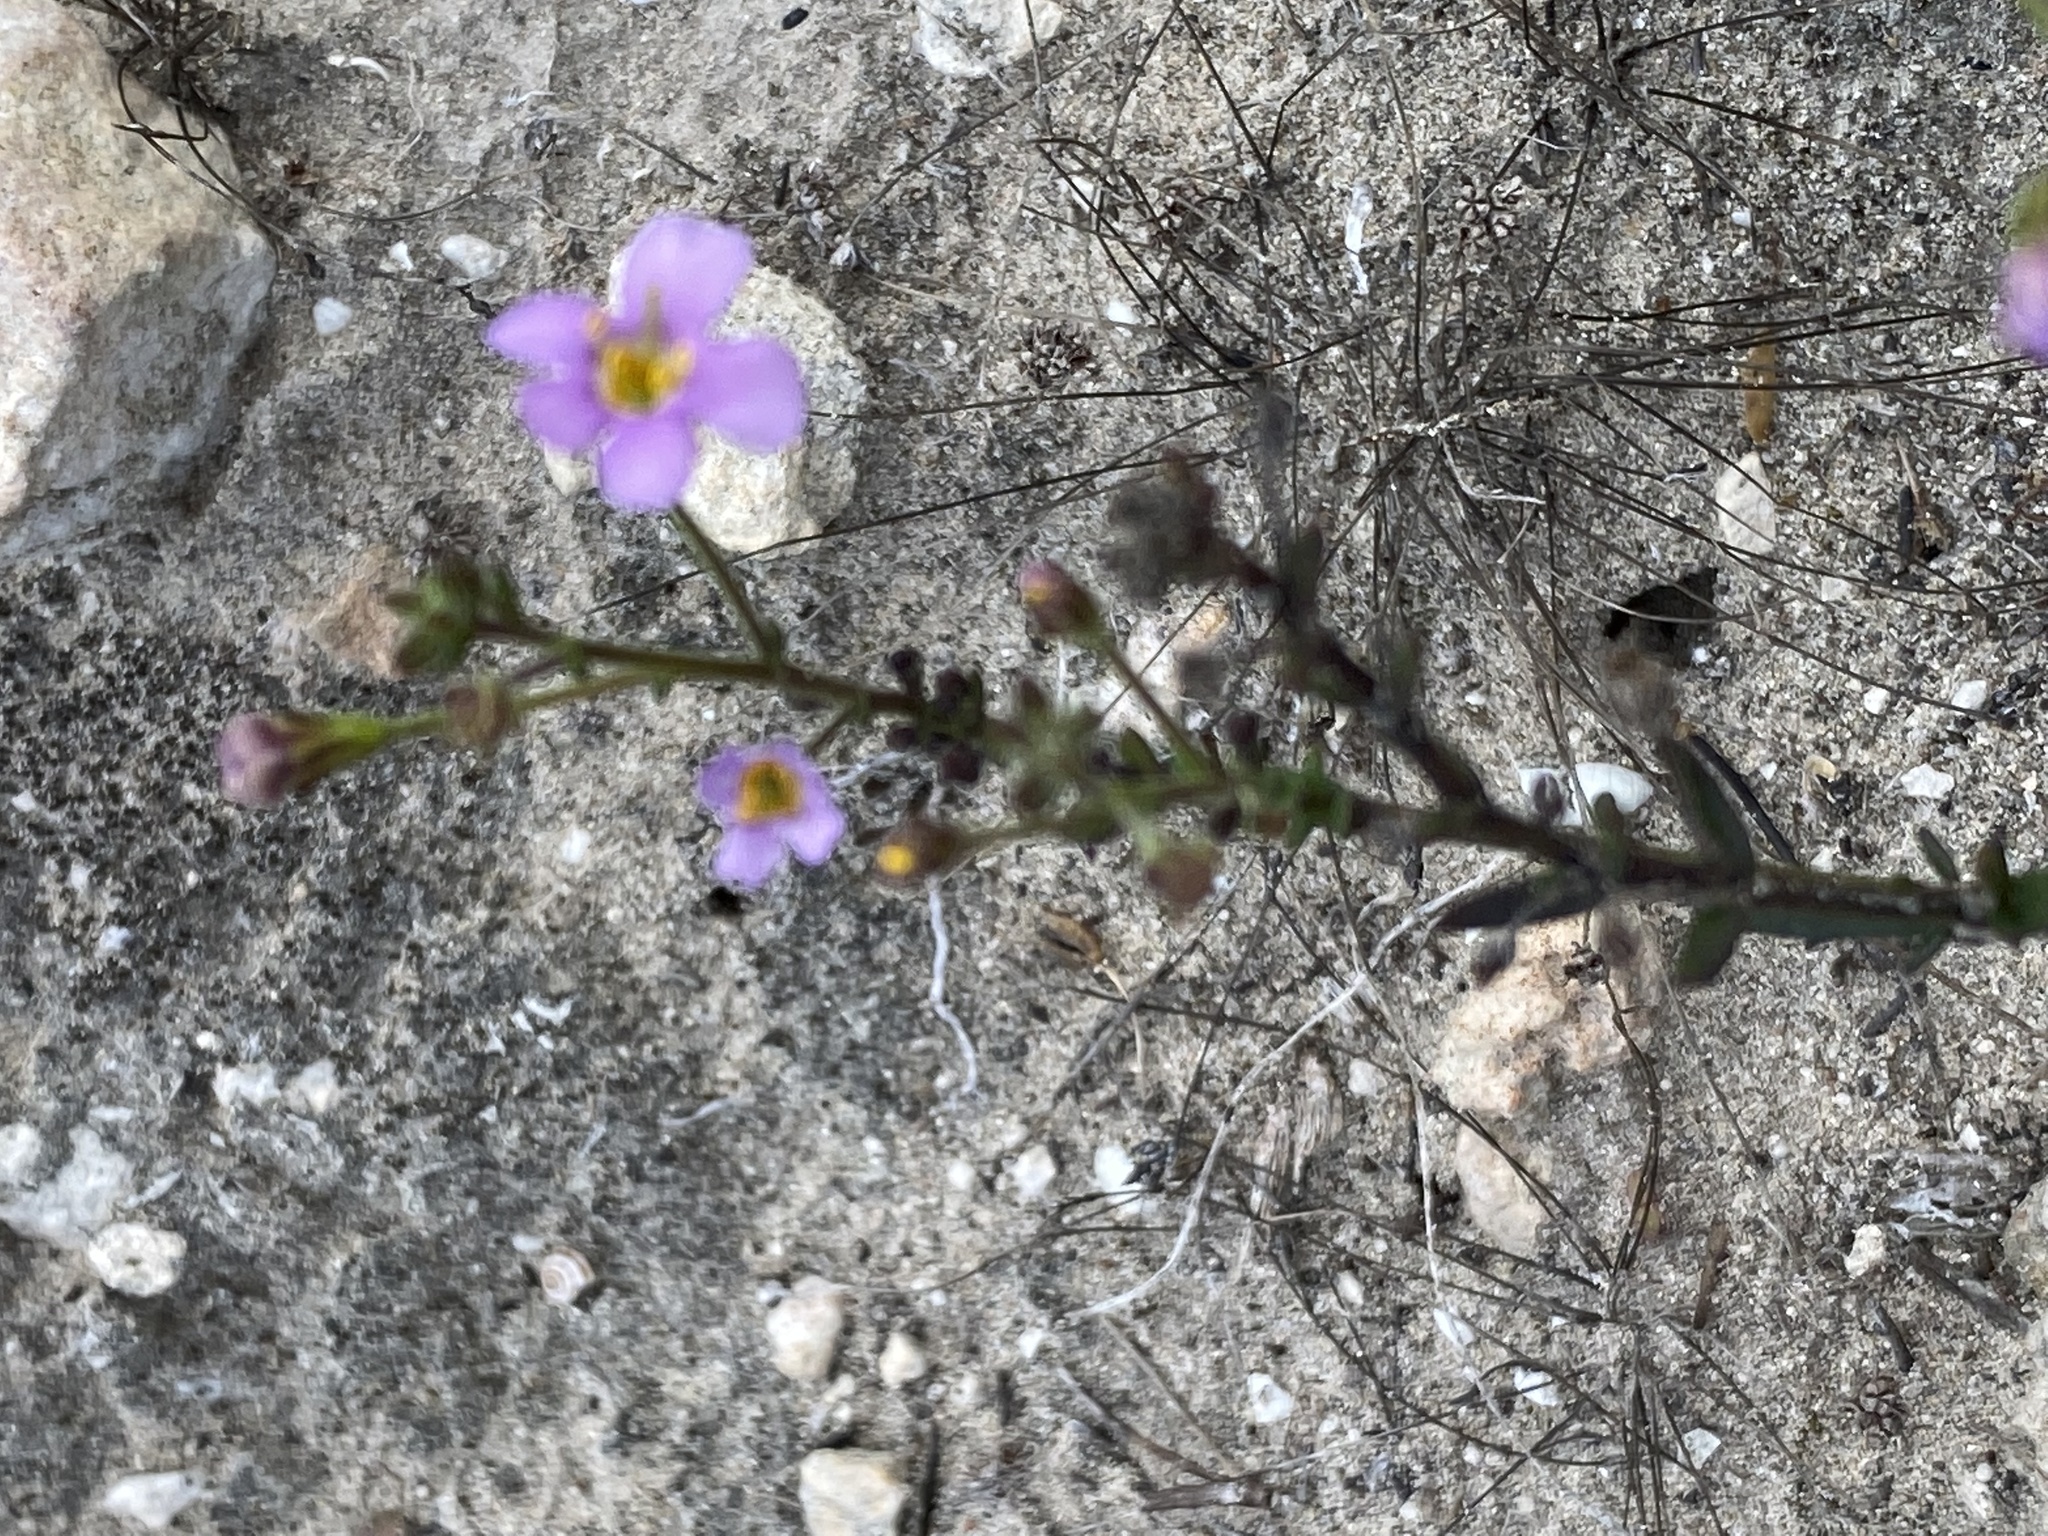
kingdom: Plantae
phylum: Tracheophyta
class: Magnoliopsida
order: Lamiales
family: Scrophulariaceae
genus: Chaenostoma
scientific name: Chaenostoma placidum
